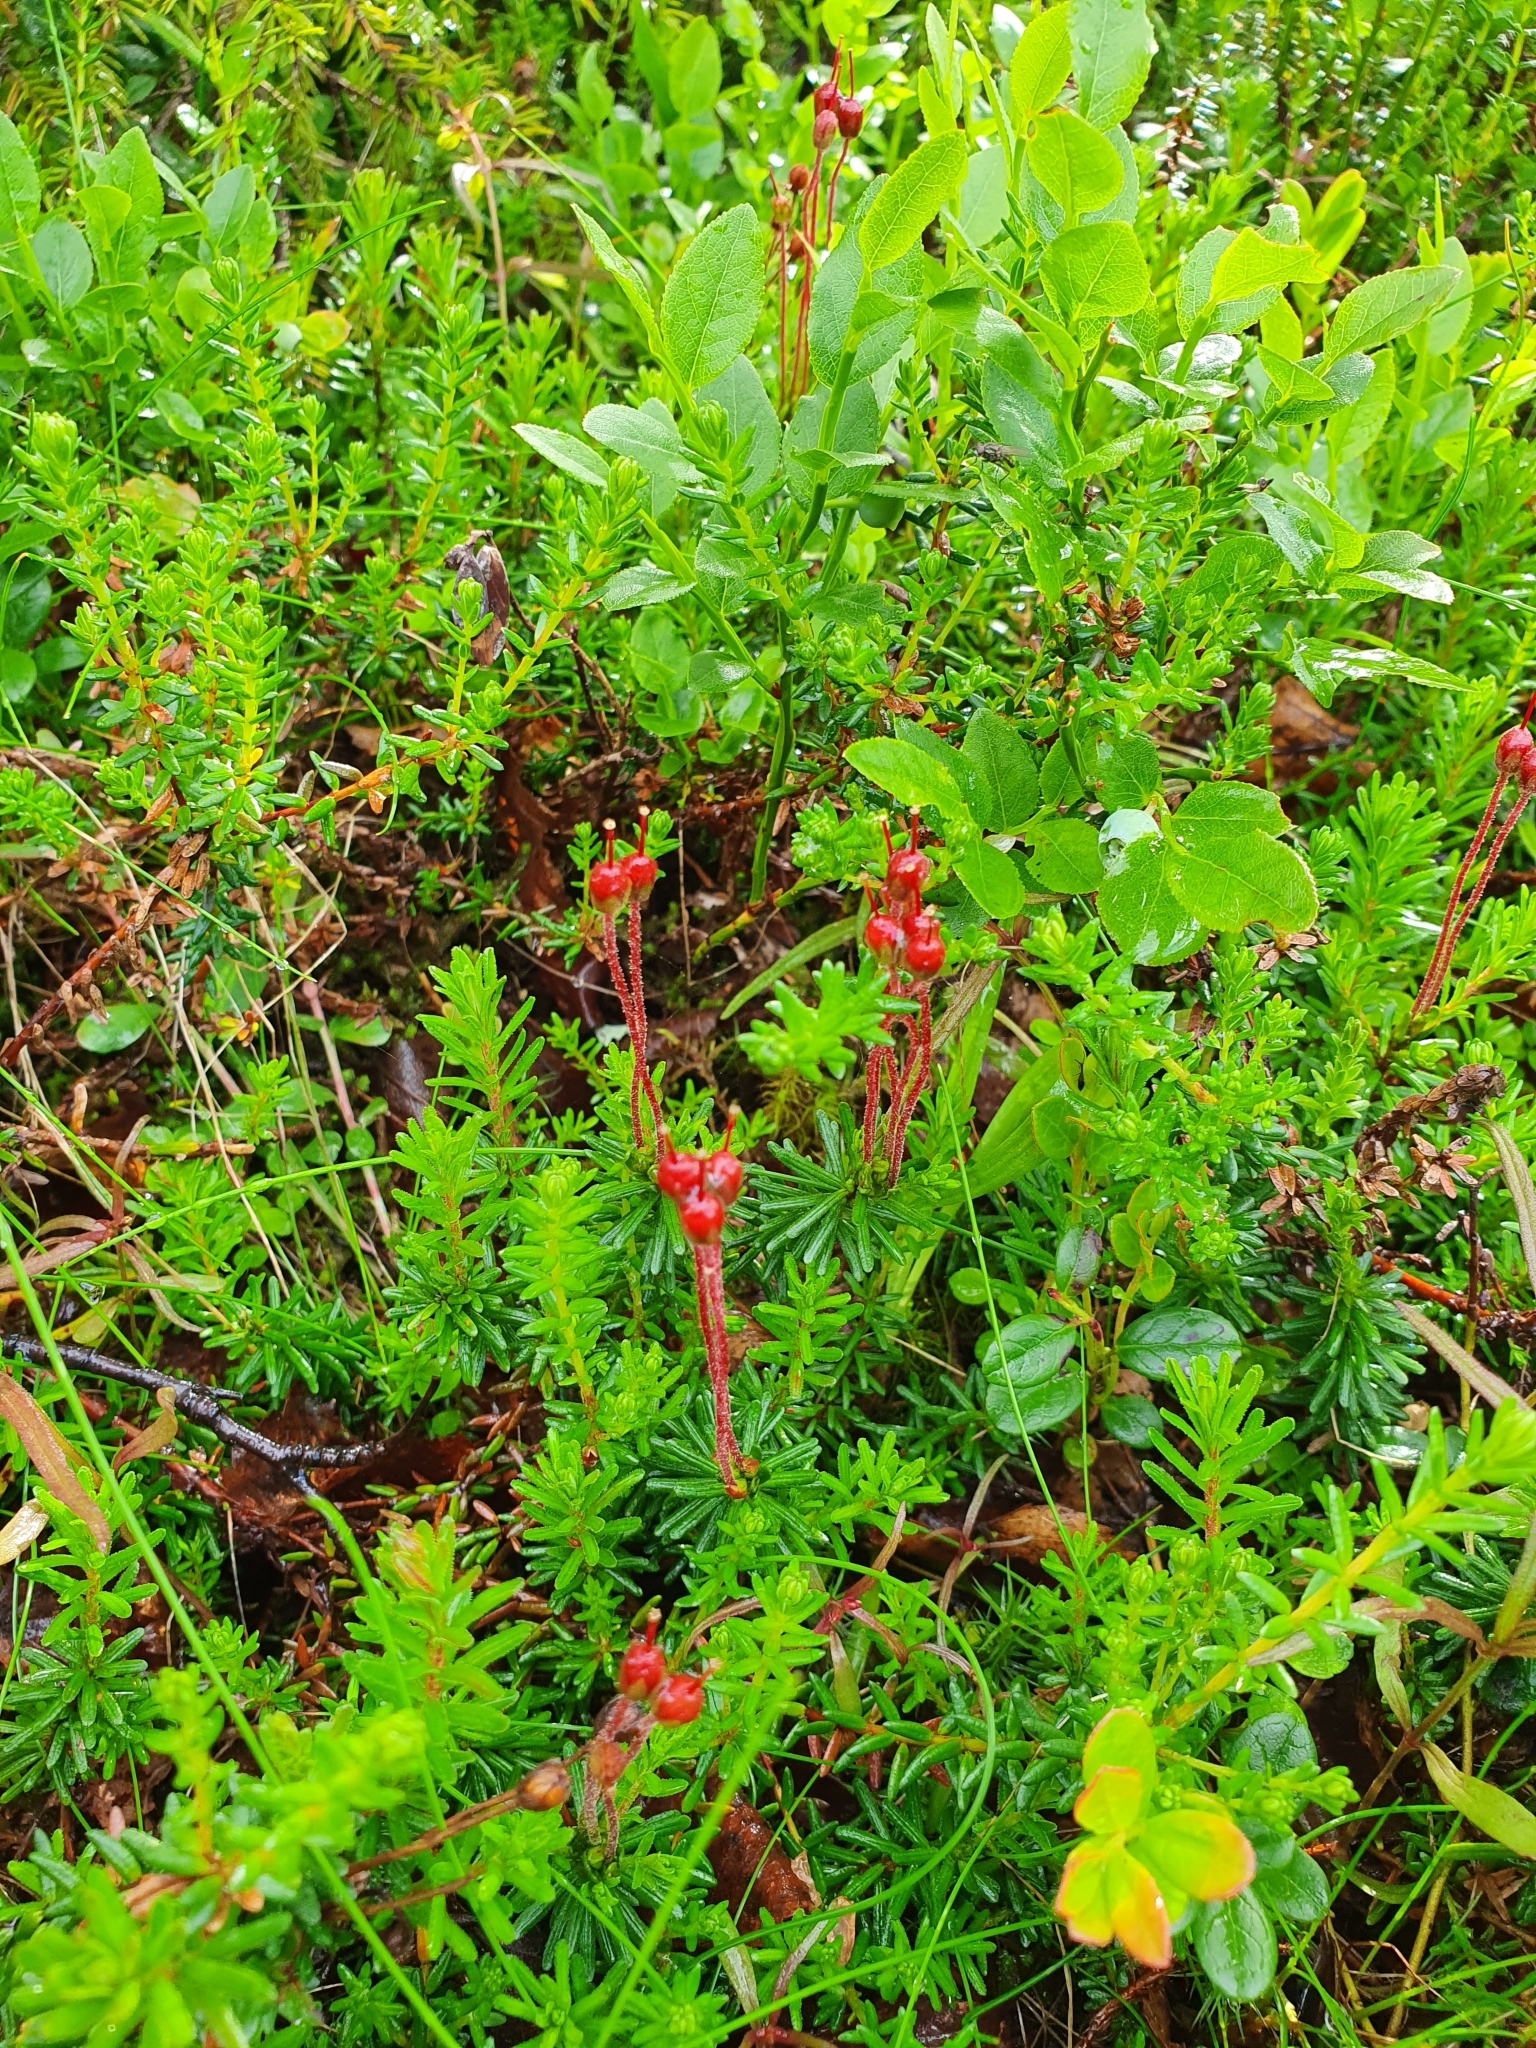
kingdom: Plantae
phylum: Tracheophyta
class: Magnoliopsida
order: Ericales
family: Ericaceae
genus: Phyllodoce
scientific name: Phyllodoce caerulea
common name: Blue heath
